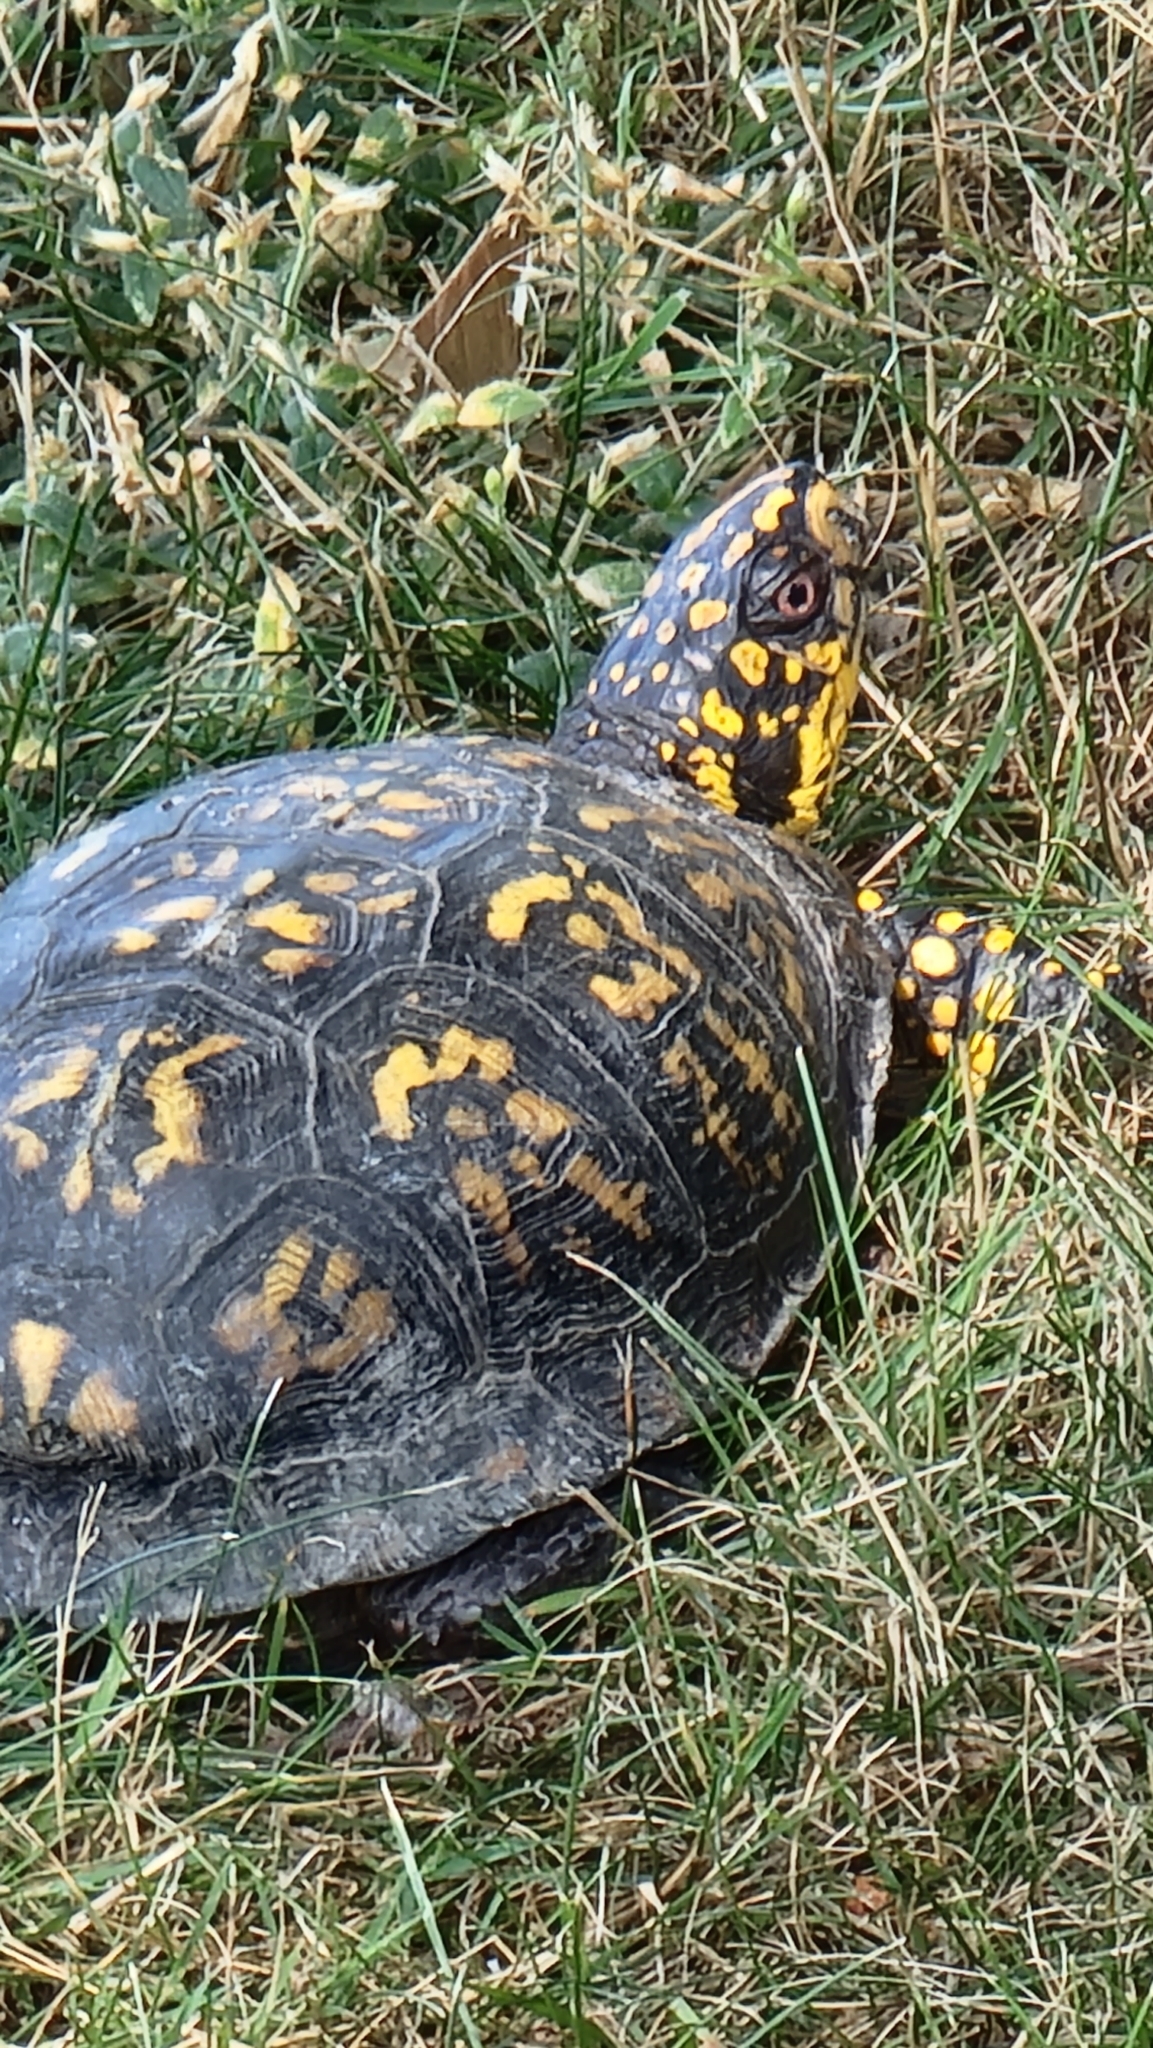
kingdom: Animalia
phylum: Chordata
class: Testudines
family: Emydidae
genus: Terrapene
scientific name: Terrapene carolina
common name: Common box turtle
